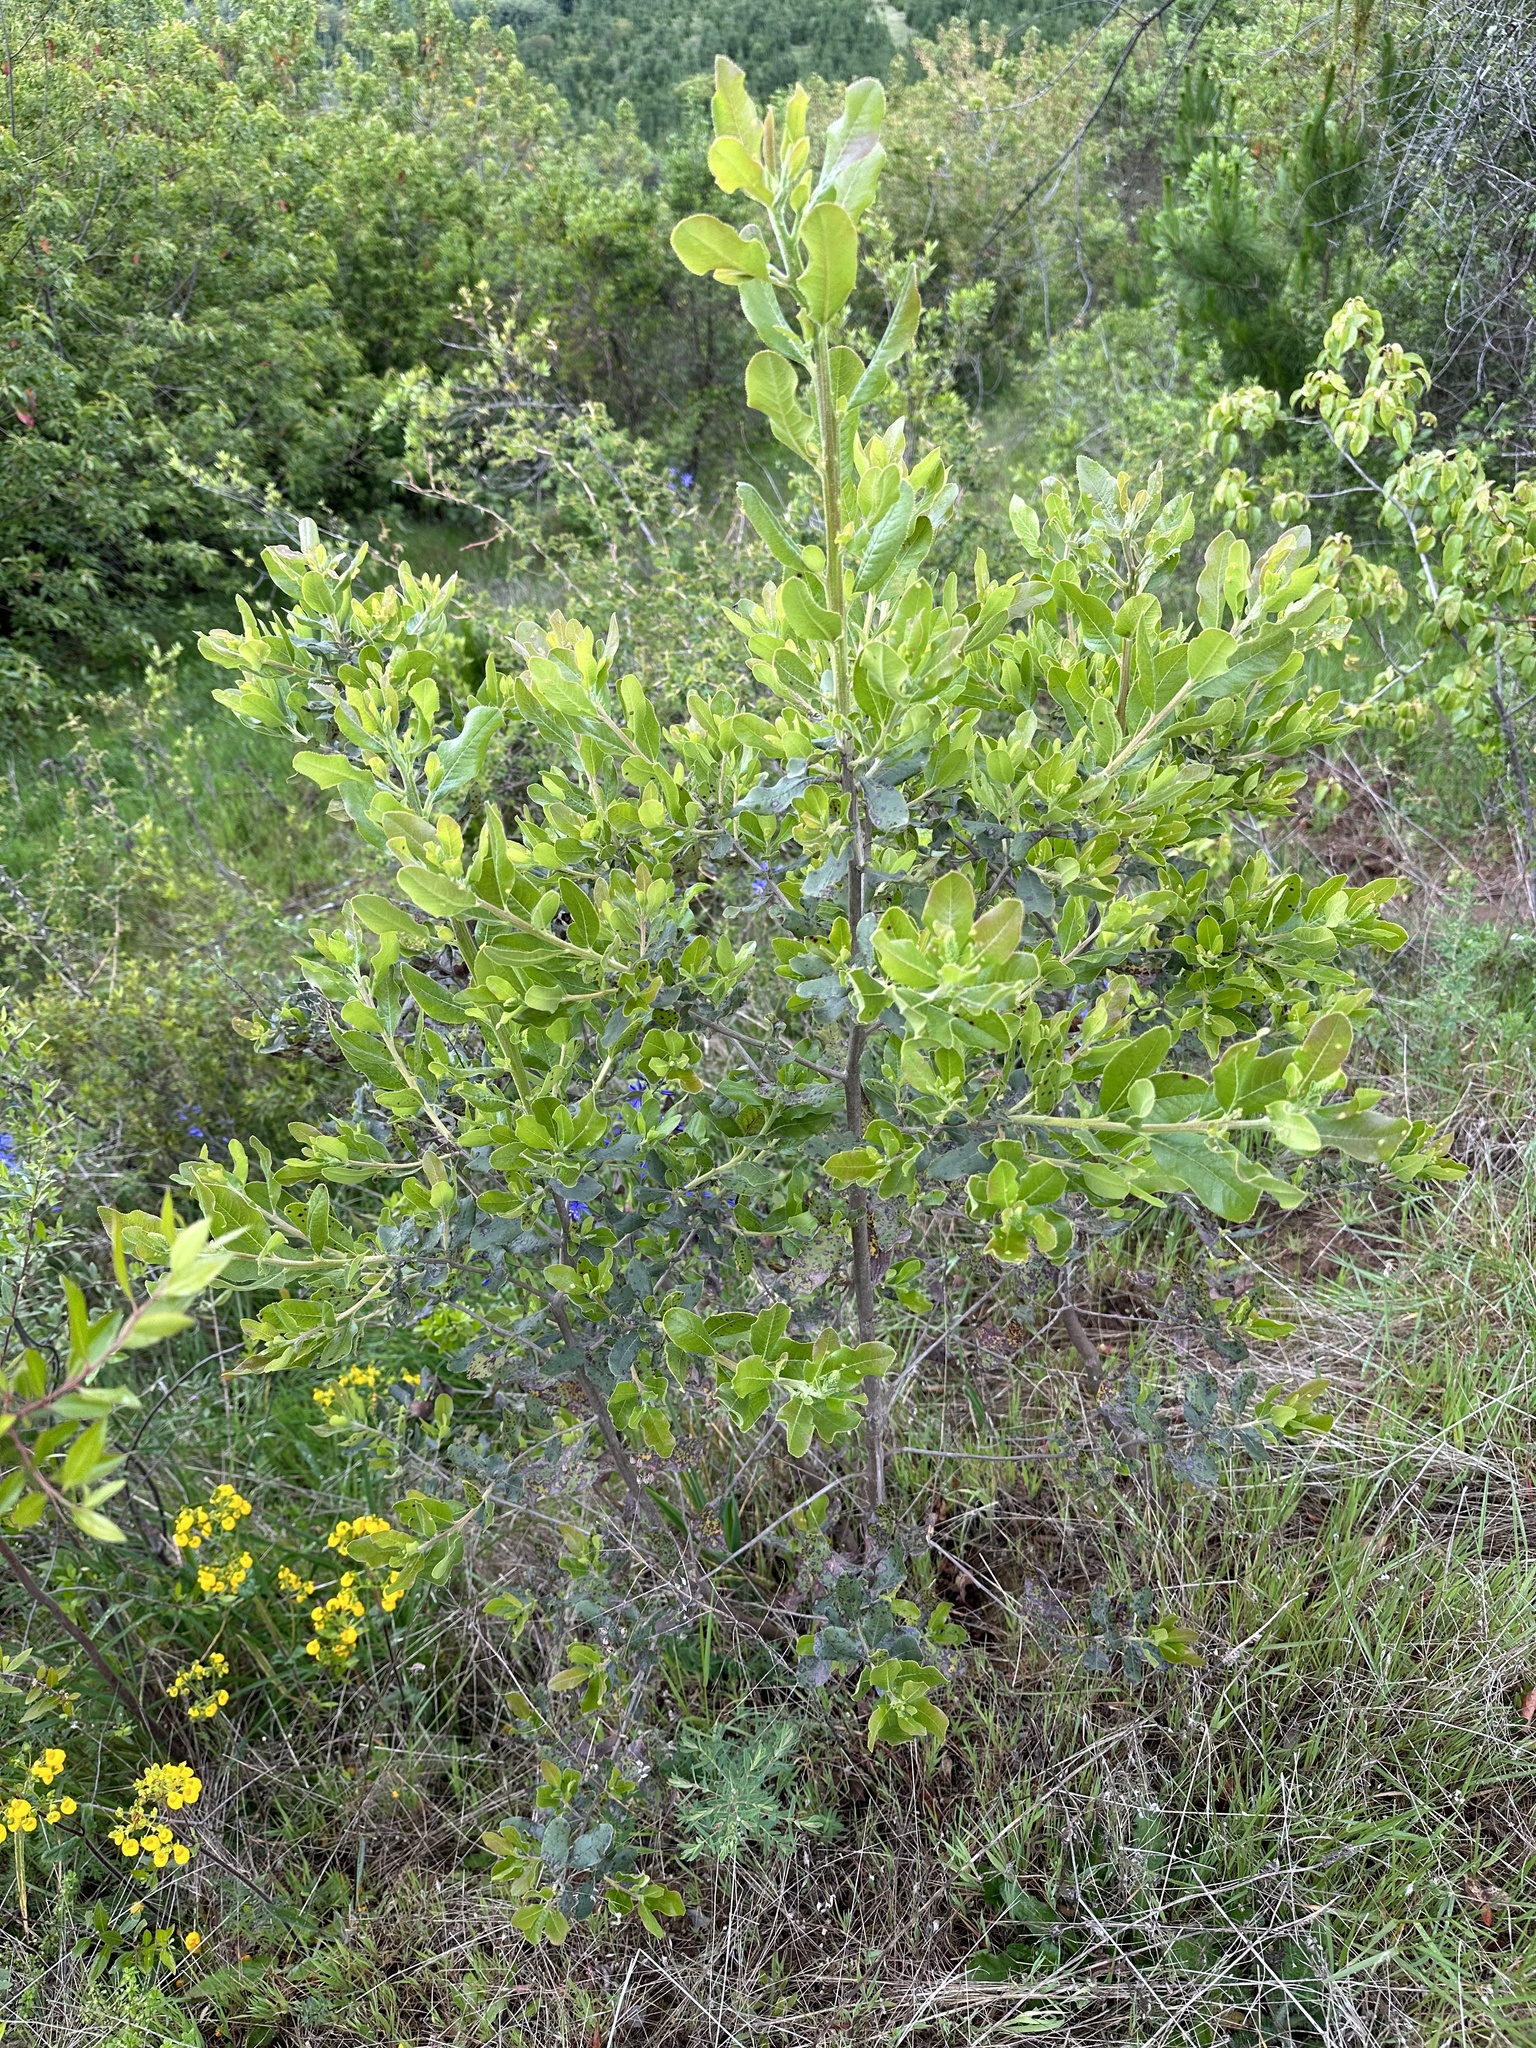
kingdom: Plantae
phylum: Tracheophyta
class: Magnoliopsida
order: Escalloniales
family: Escalloniaceae
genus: Escallonia
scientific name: Escallonia pulverulenta
